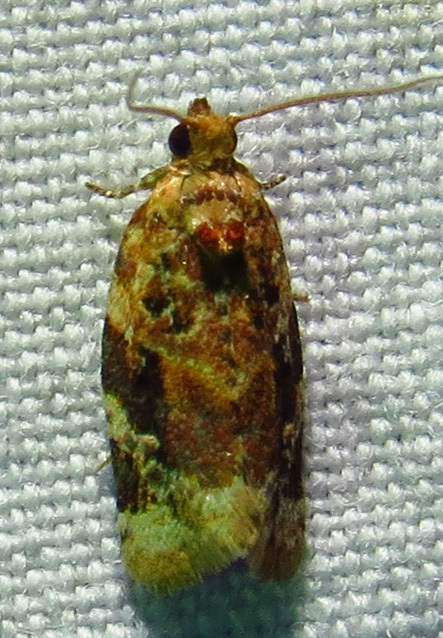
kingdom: Animalia
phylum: Arthropoda
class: Insecta
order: Lepidoptera
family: Tortricidae
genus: Argyrotaenia
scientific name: Argyrotaenia velutinana
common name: Red-banded leafroller moth
